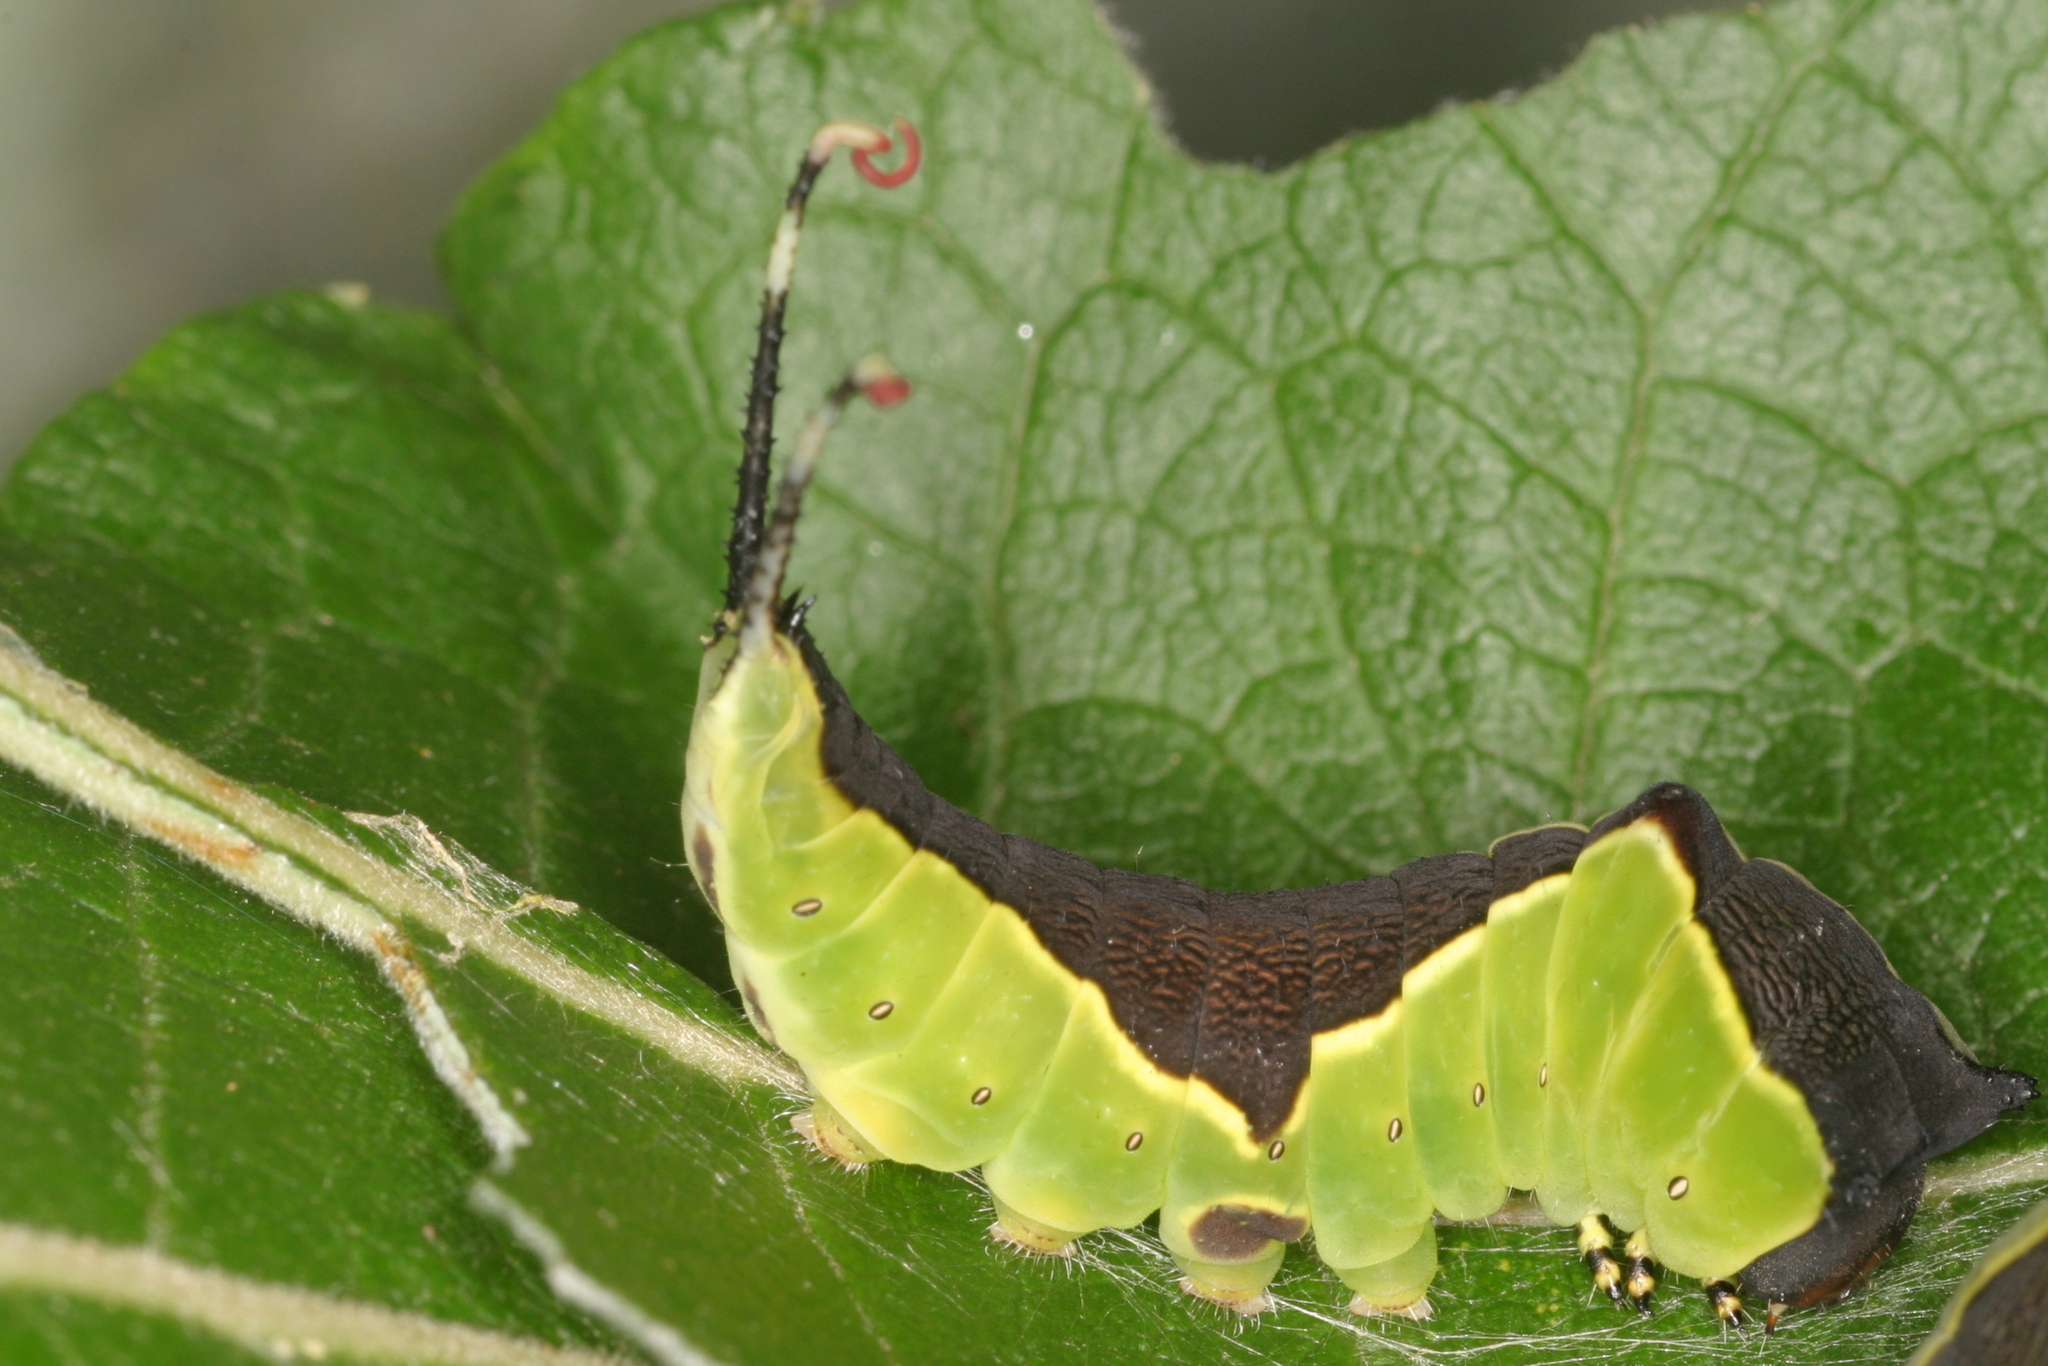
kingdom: Animalia
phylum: Arthropoda
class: Insecta
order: Lepidoptera
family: Notodontidae
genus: Cerura
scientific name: Cerura vinula
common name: Puss moth
